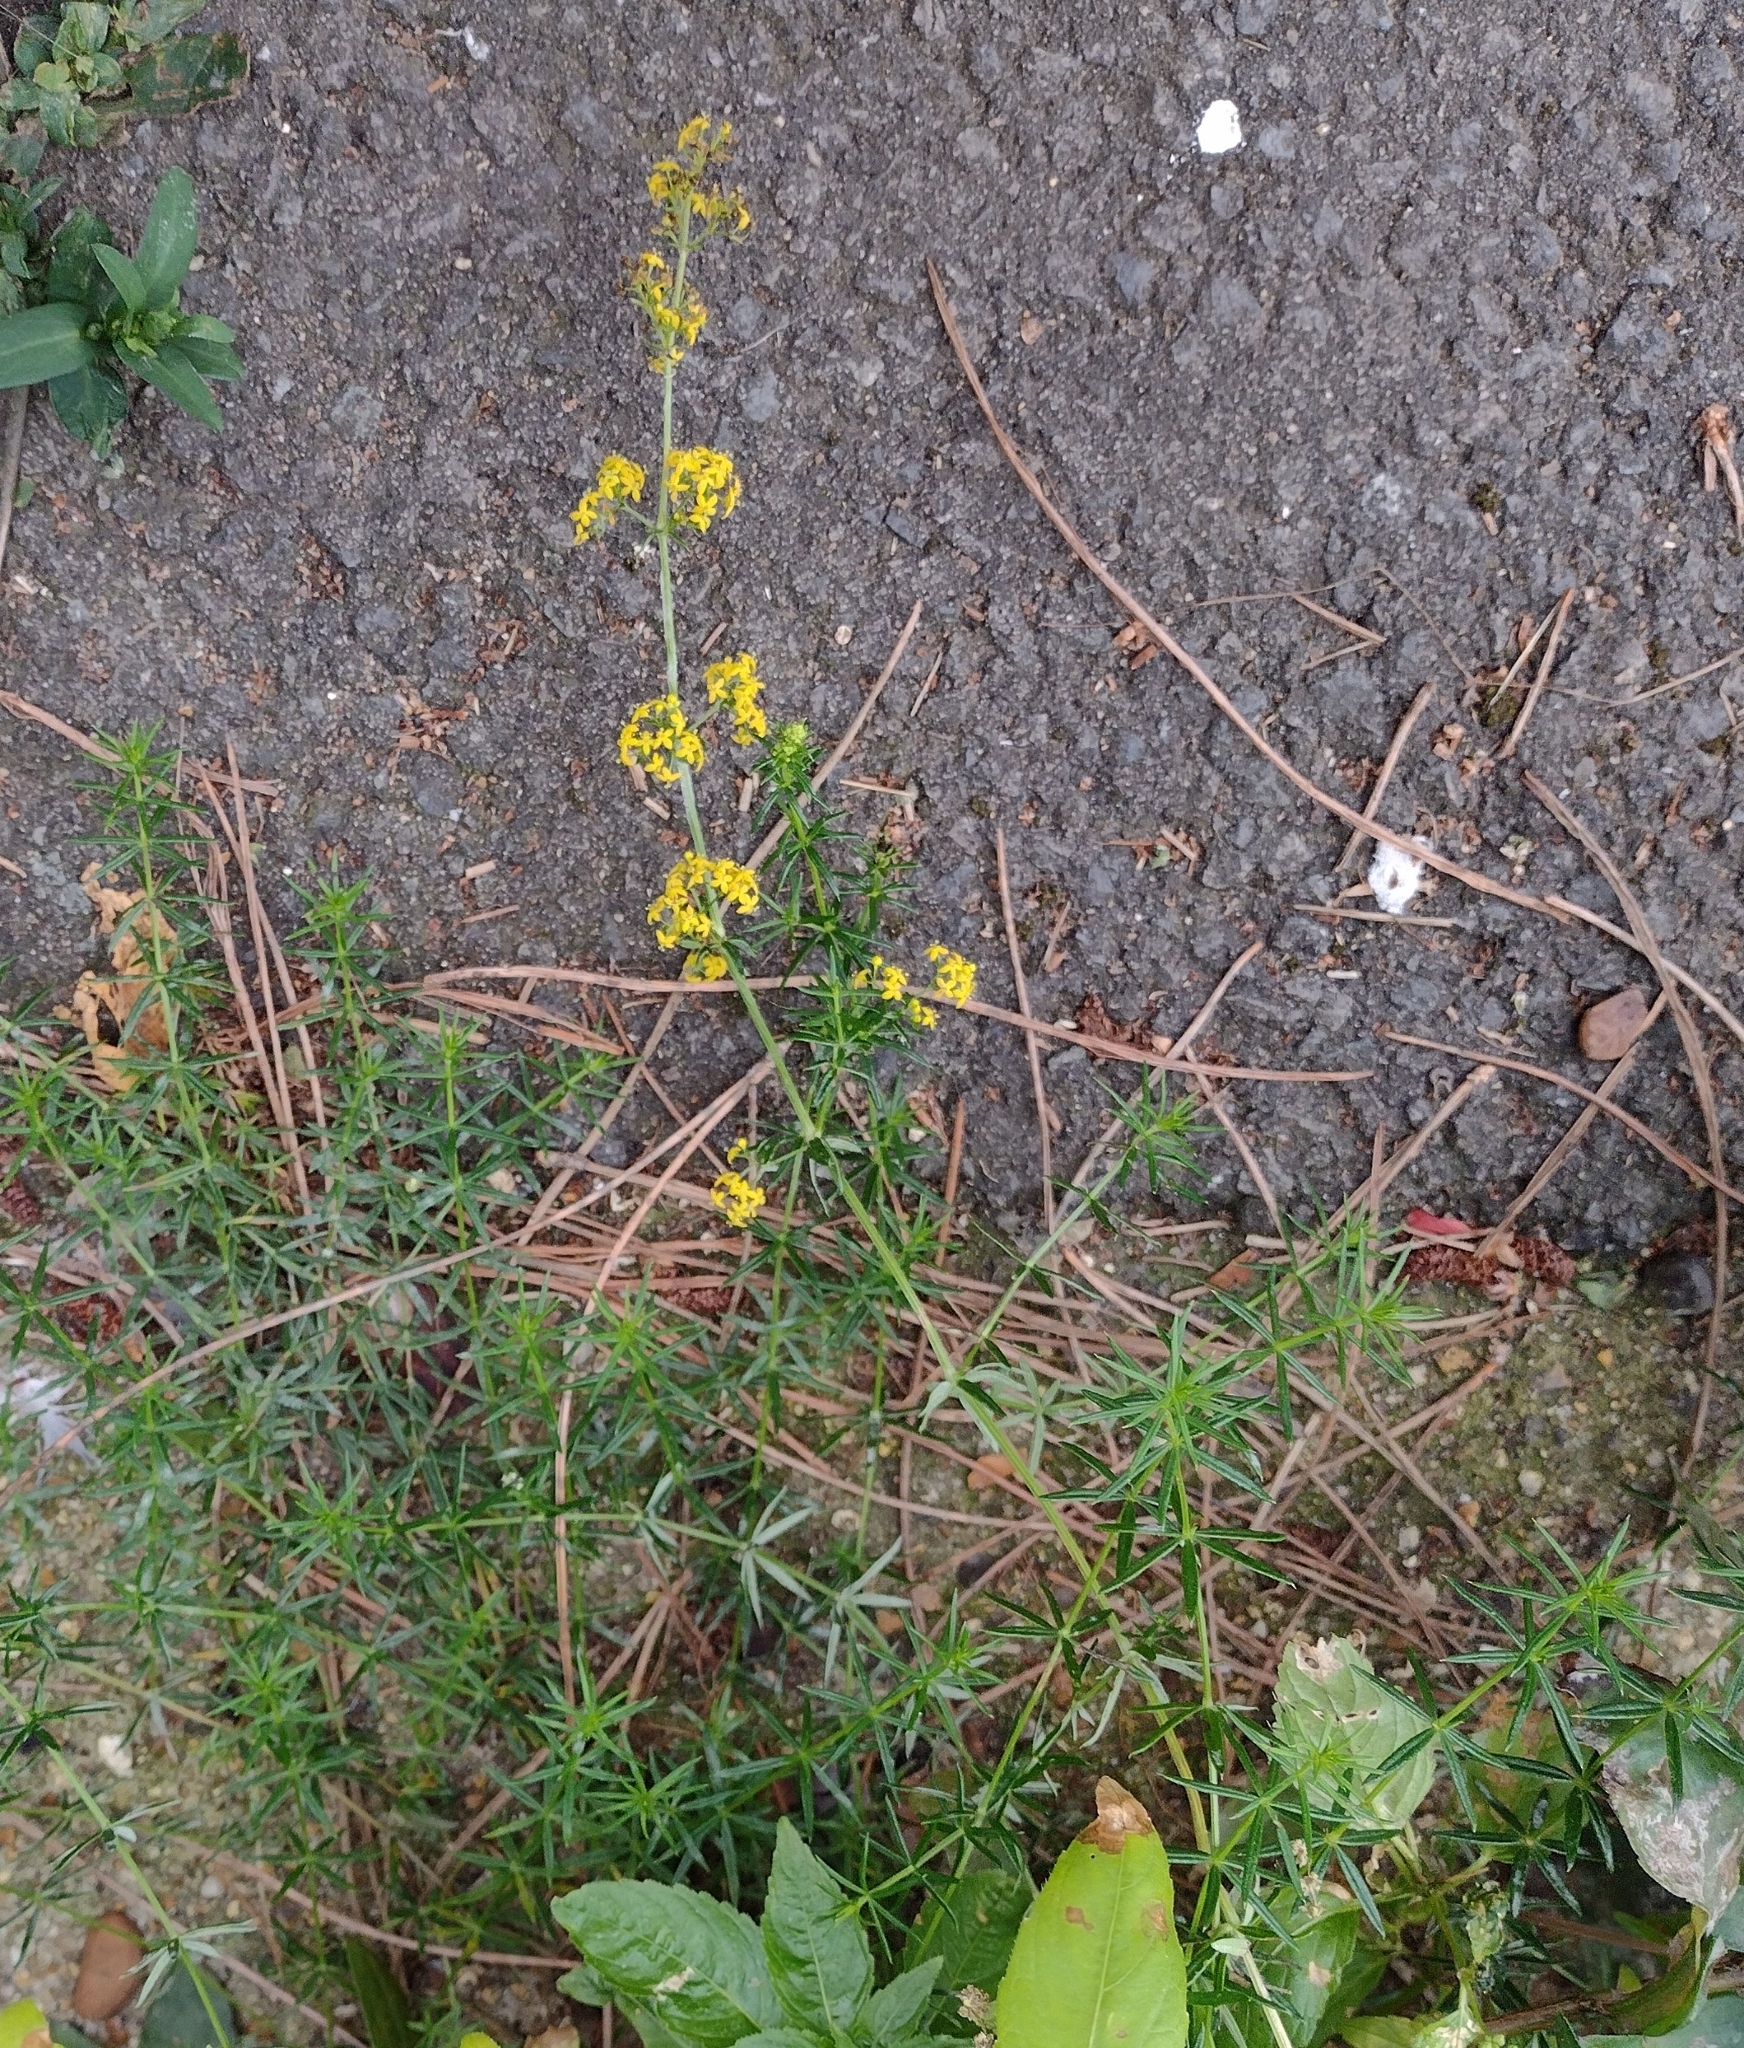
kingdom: Plantae
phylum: Tracheophyta
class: Magnoliopsida
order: Gentianales
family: Rubiaceae
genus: Galium
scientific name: Galium verum
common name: Lady's bedstraw
